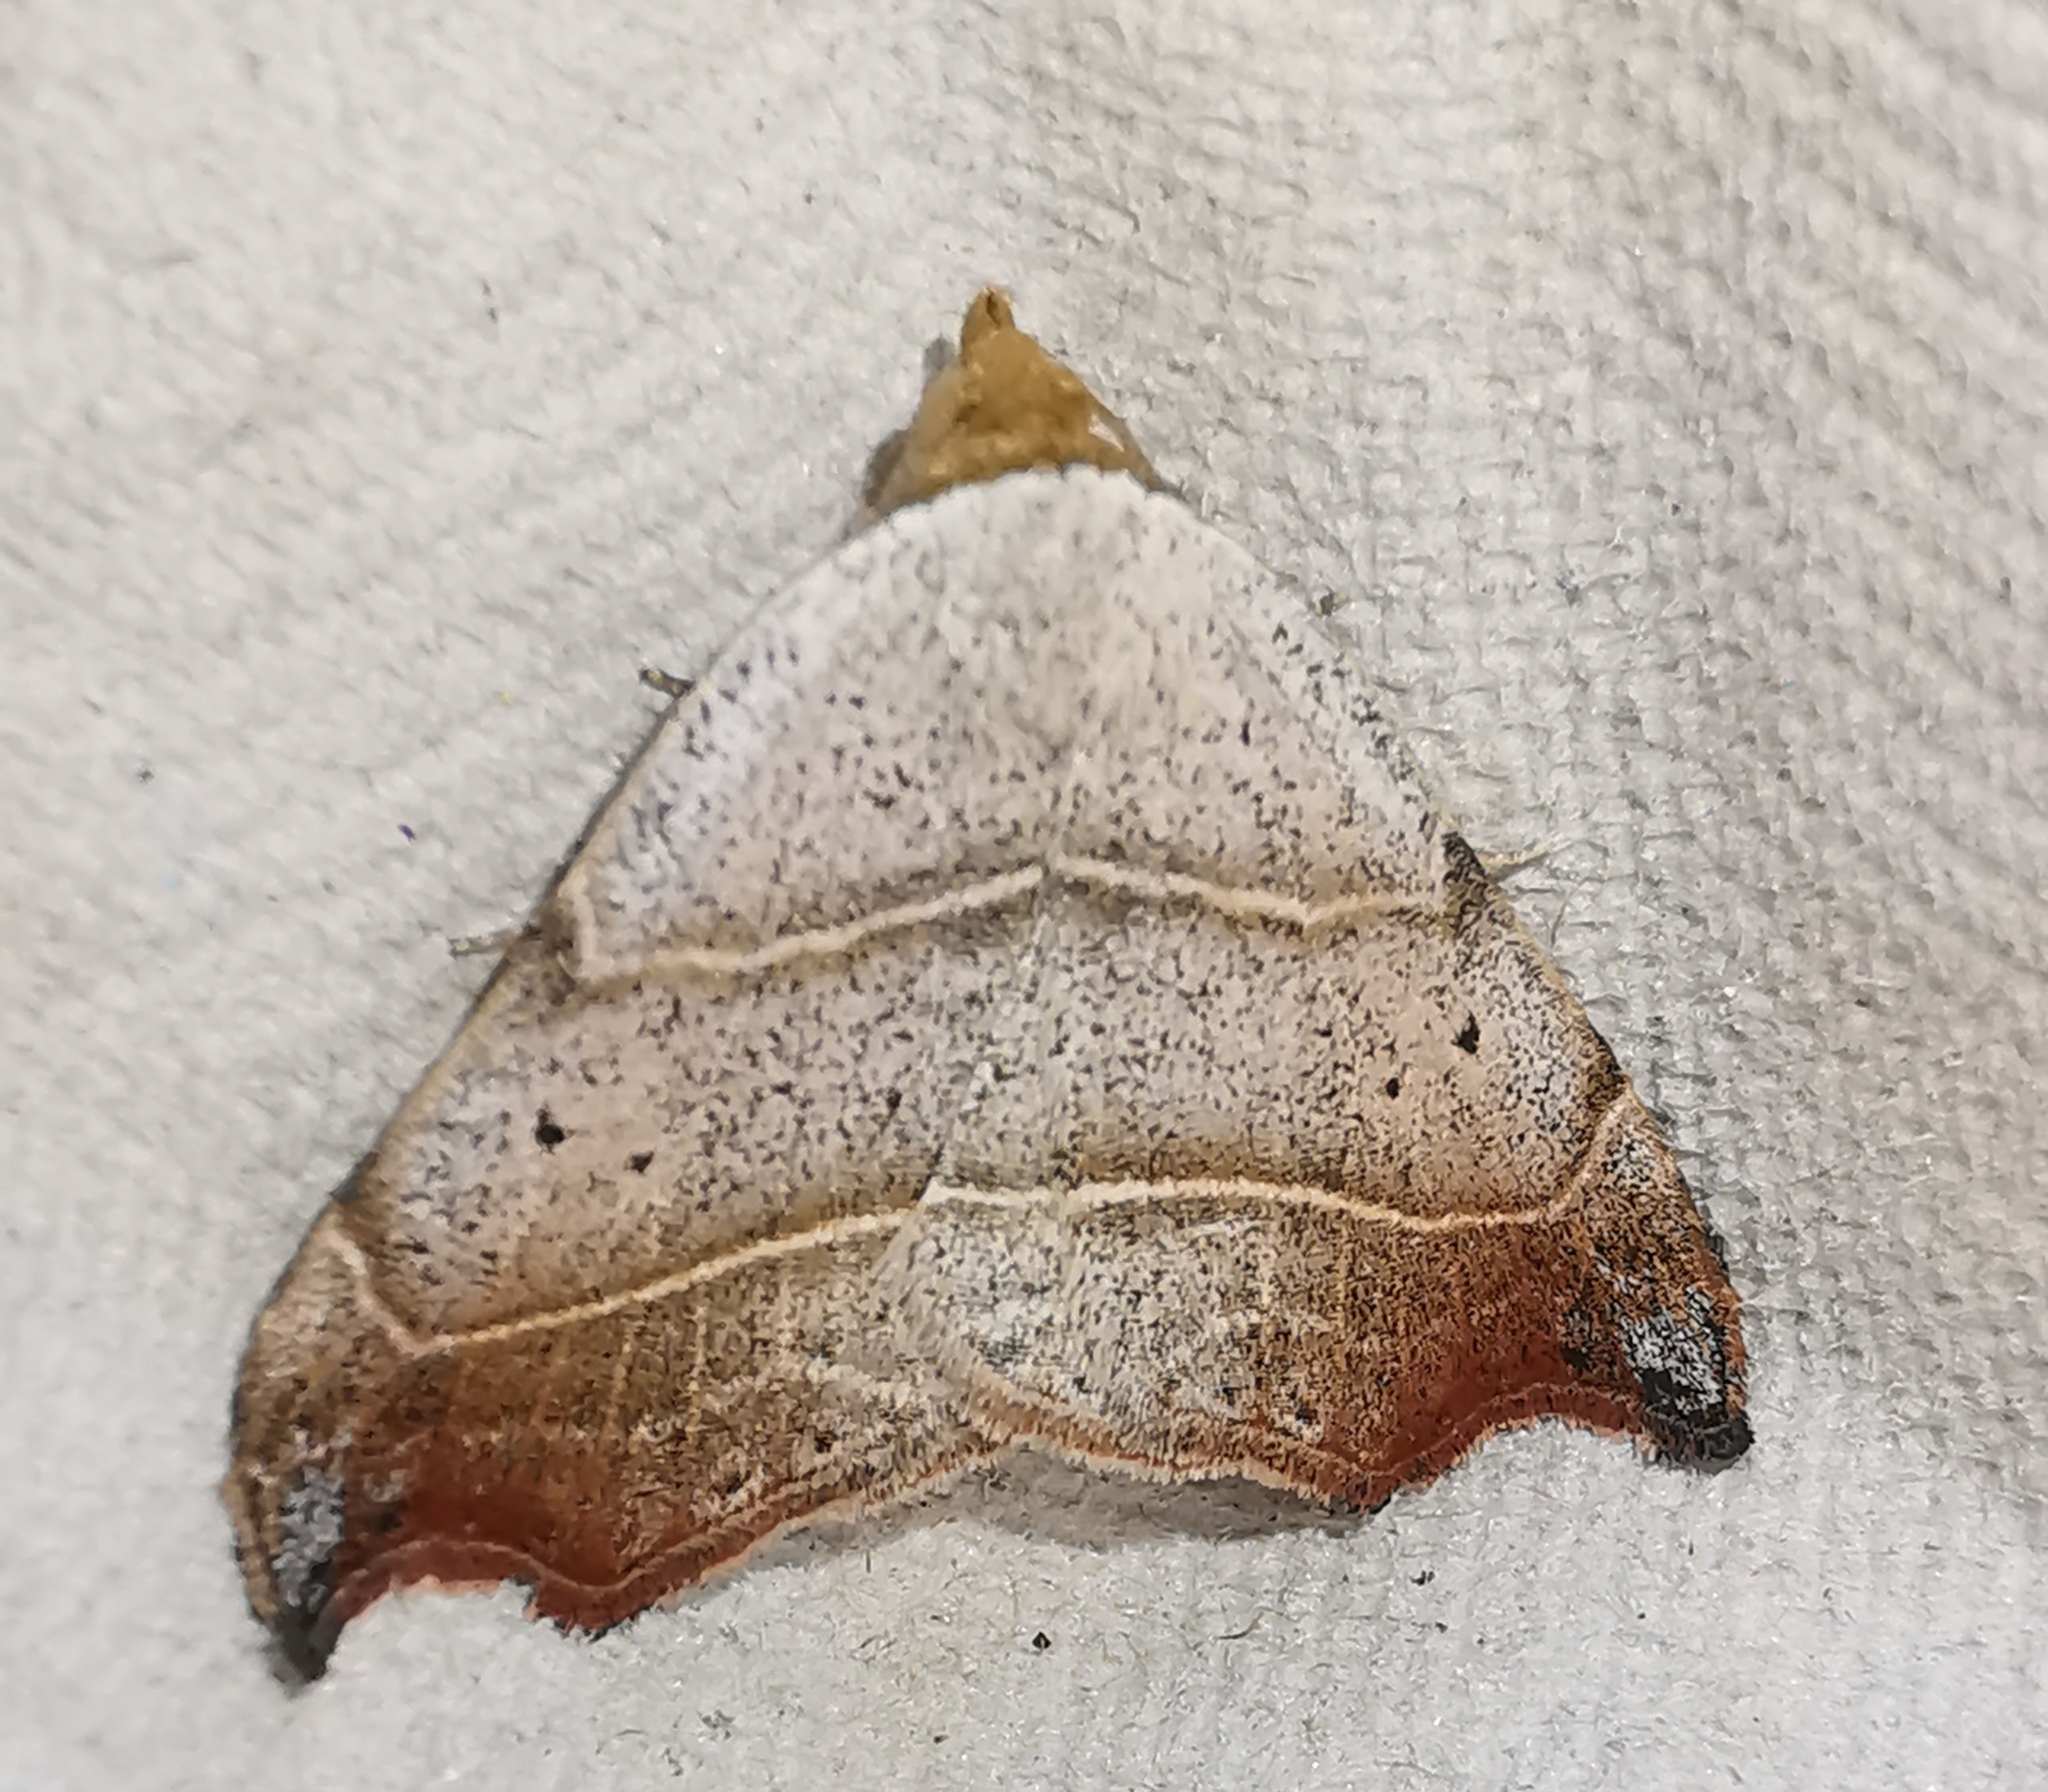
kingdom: Animalia
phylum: Arthropoda
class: Insecta
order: Lepidoptera
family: Erebidae
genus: Laspeyria
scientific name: Laspeyria flexula
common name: Beautiful hook-tip
